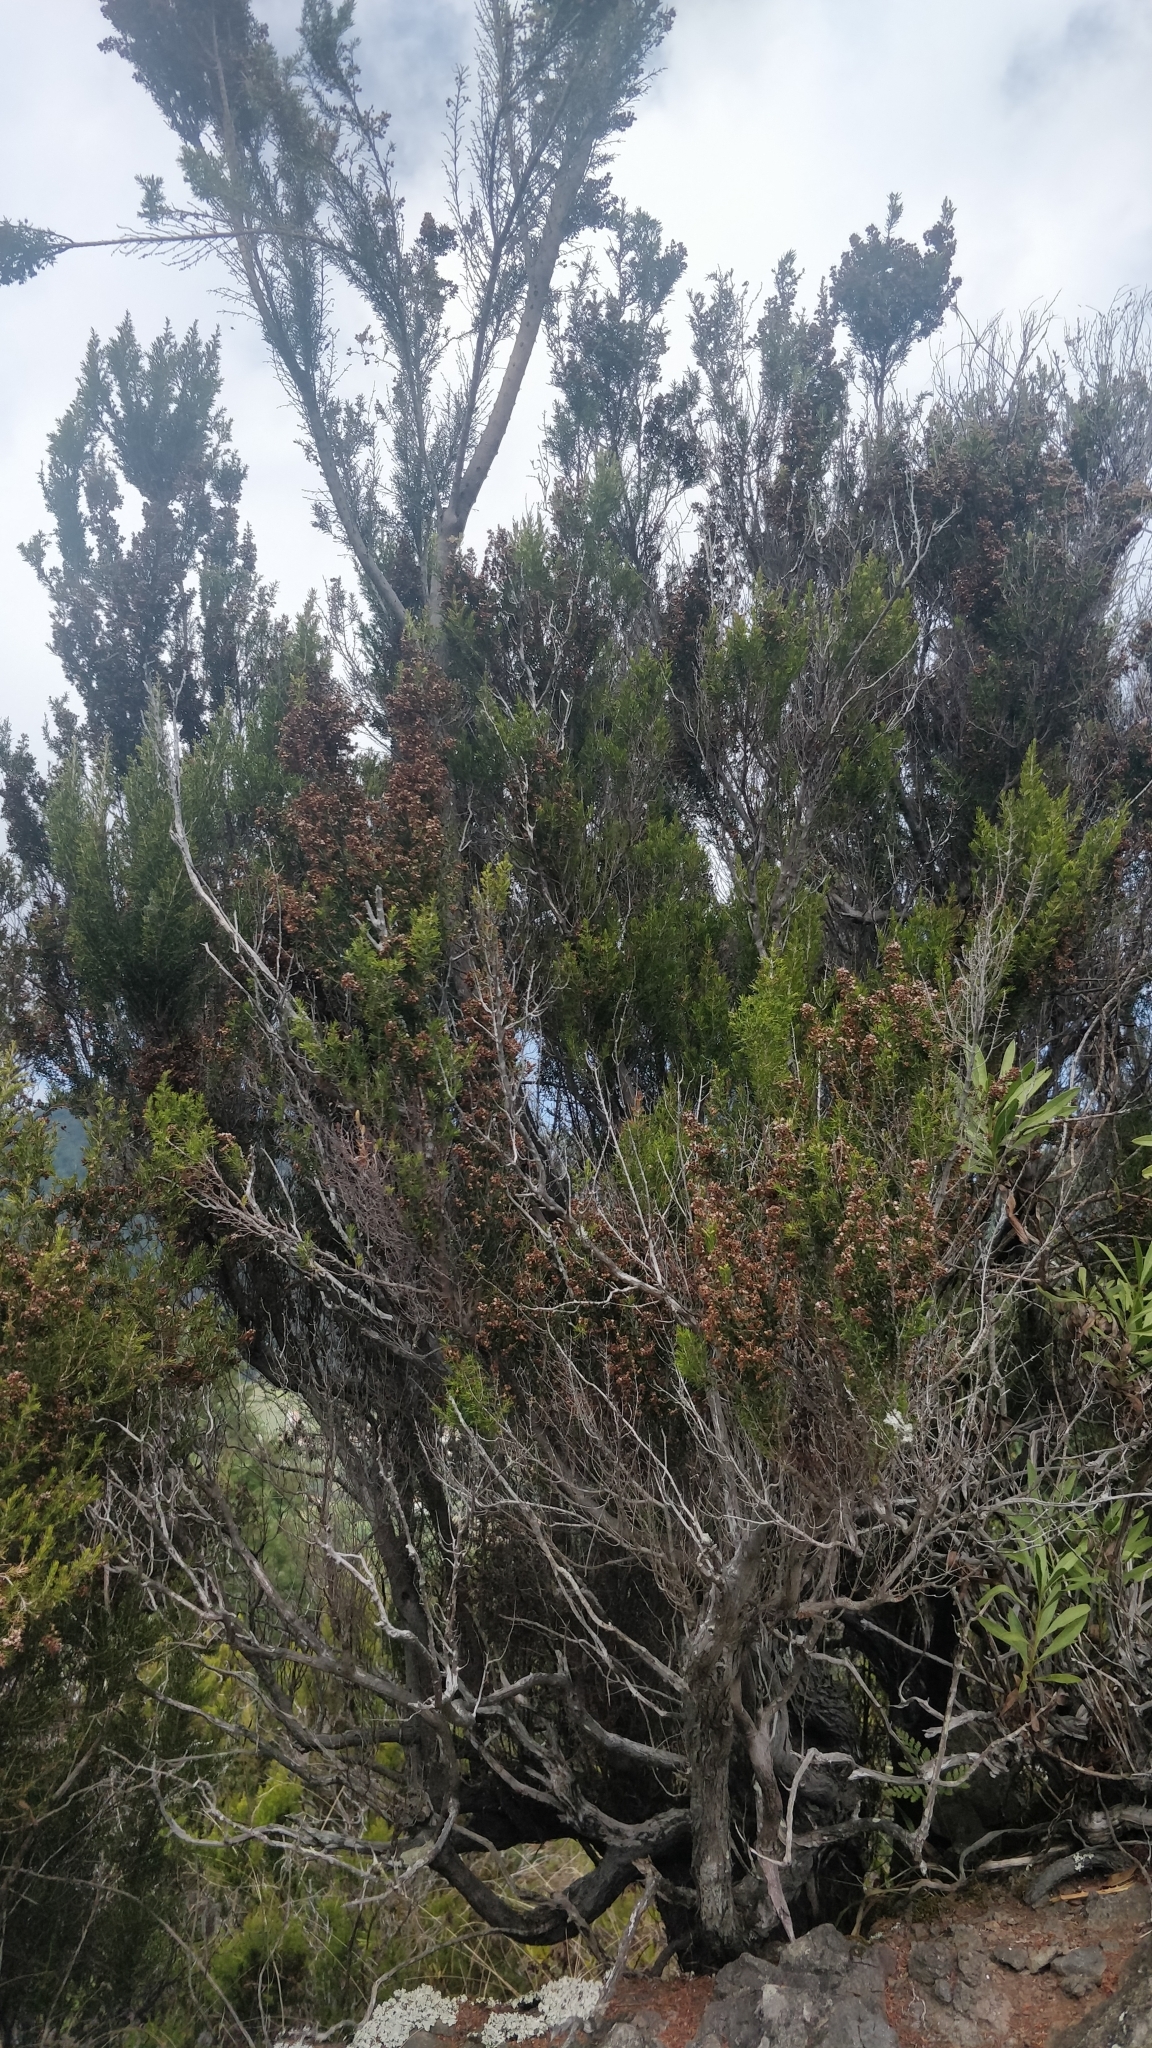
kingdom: Plantae
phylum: Tracheophyta
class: Magnoliopsida
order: Ericales
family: Ericaceae
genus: Erica
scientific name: Erica canariensis
